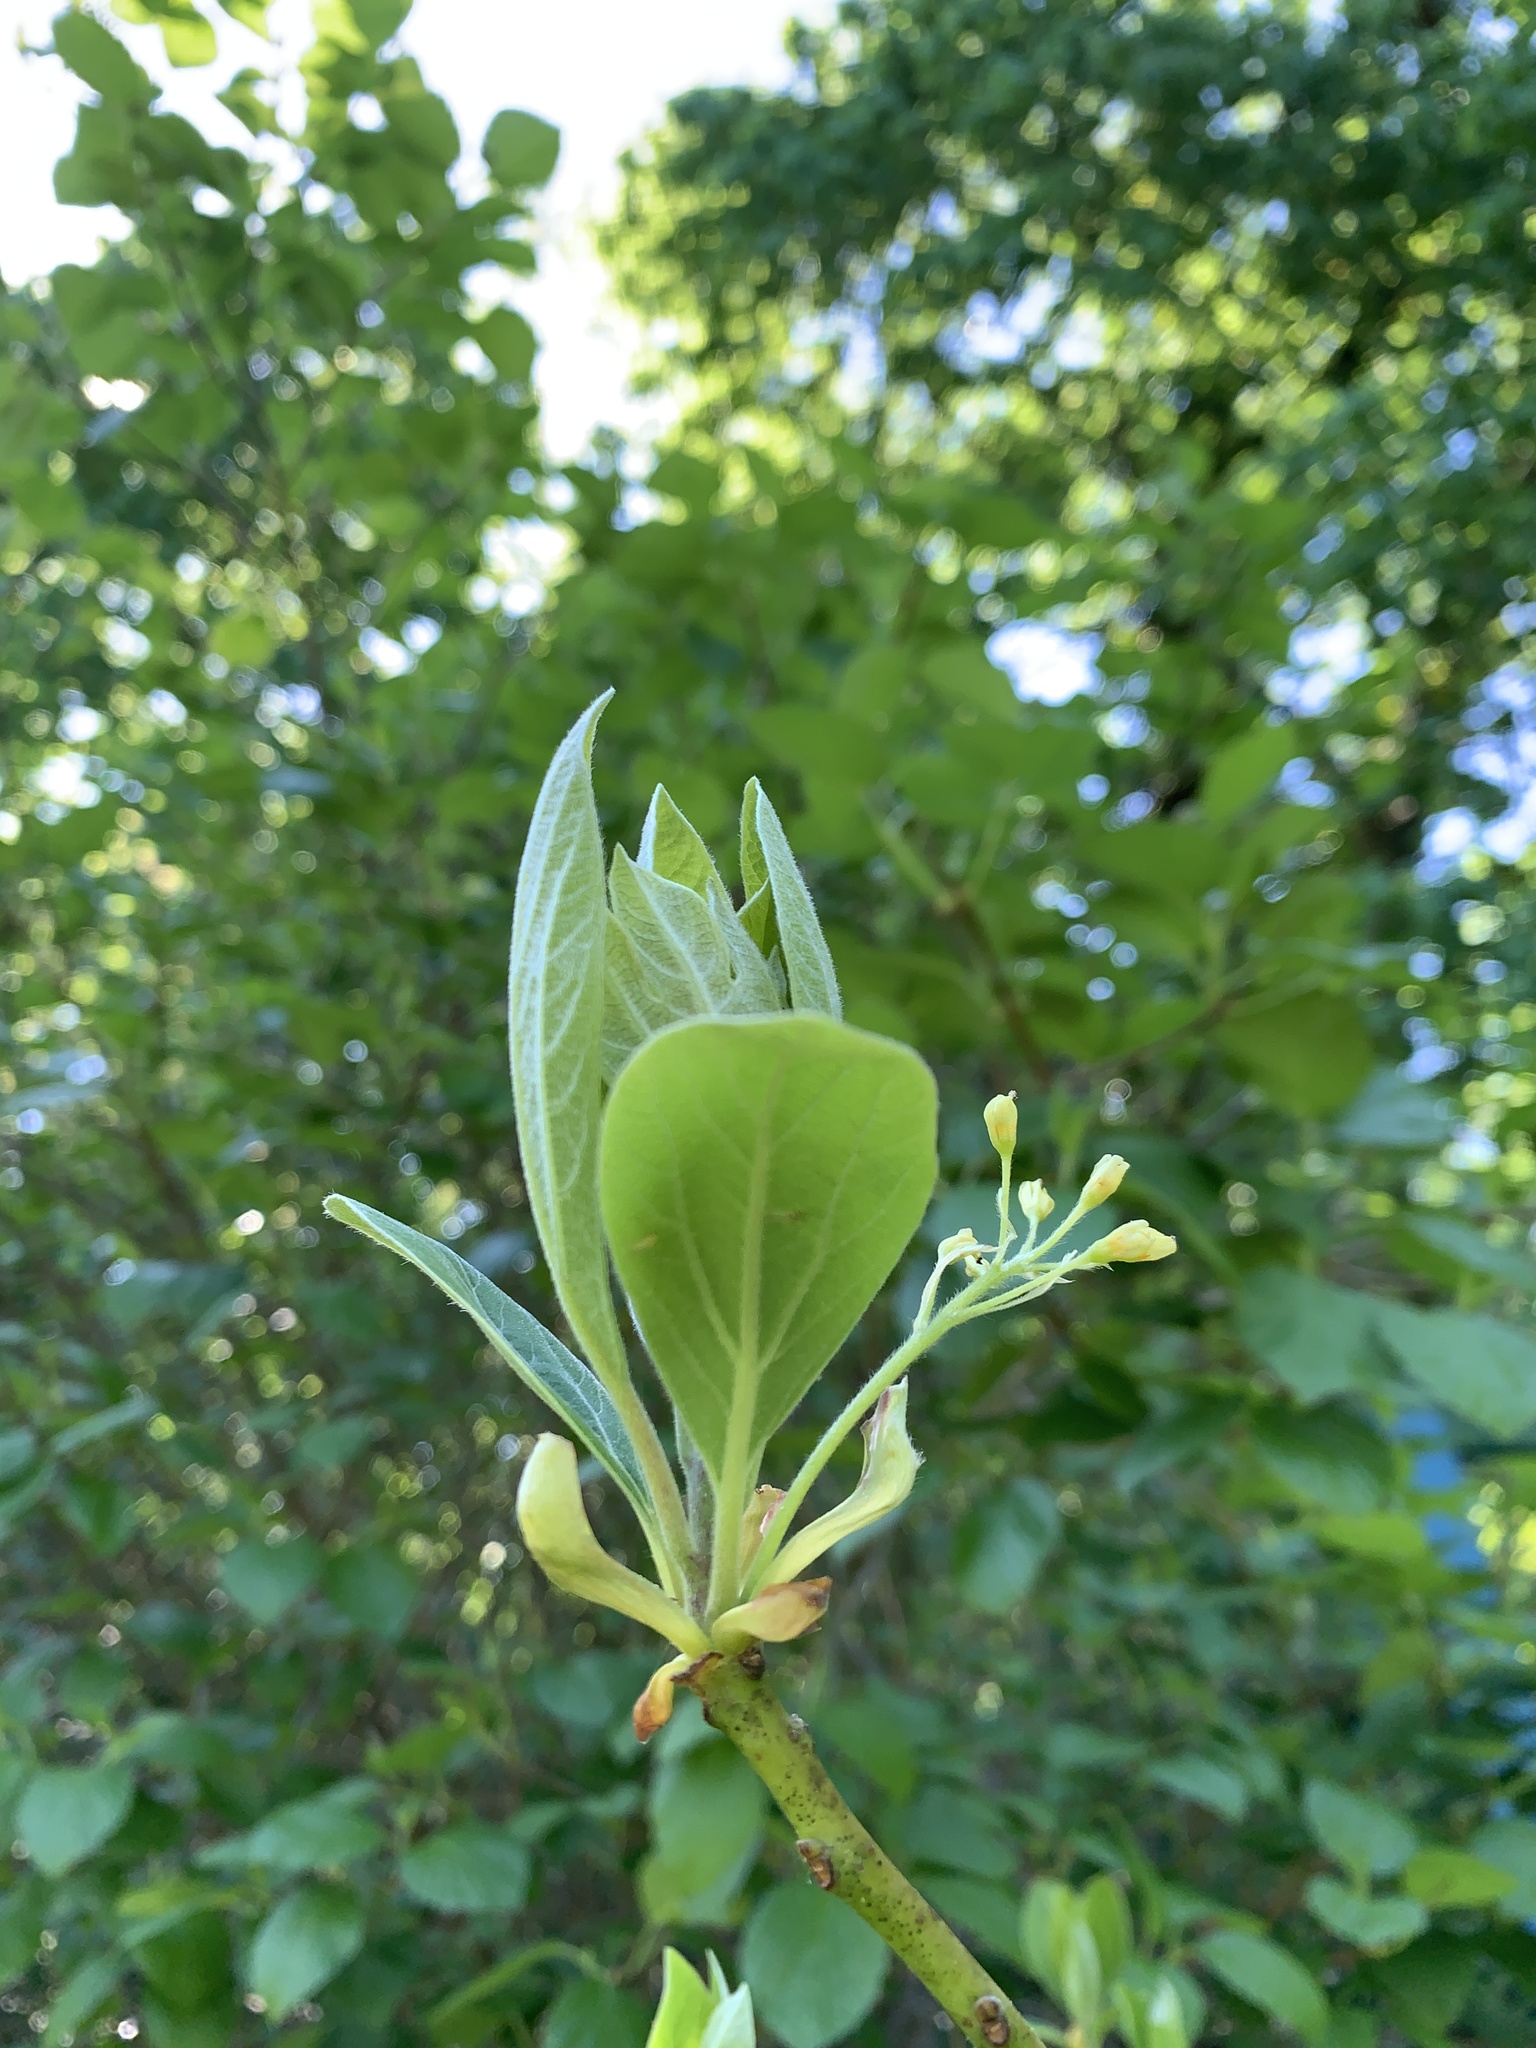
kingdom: Plantae
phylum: Tracheophyta
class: Magnoliopsida
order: Laurales
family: Lauraceae
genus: Sassafras
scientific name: Sassafras albidum
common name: Sassafras
